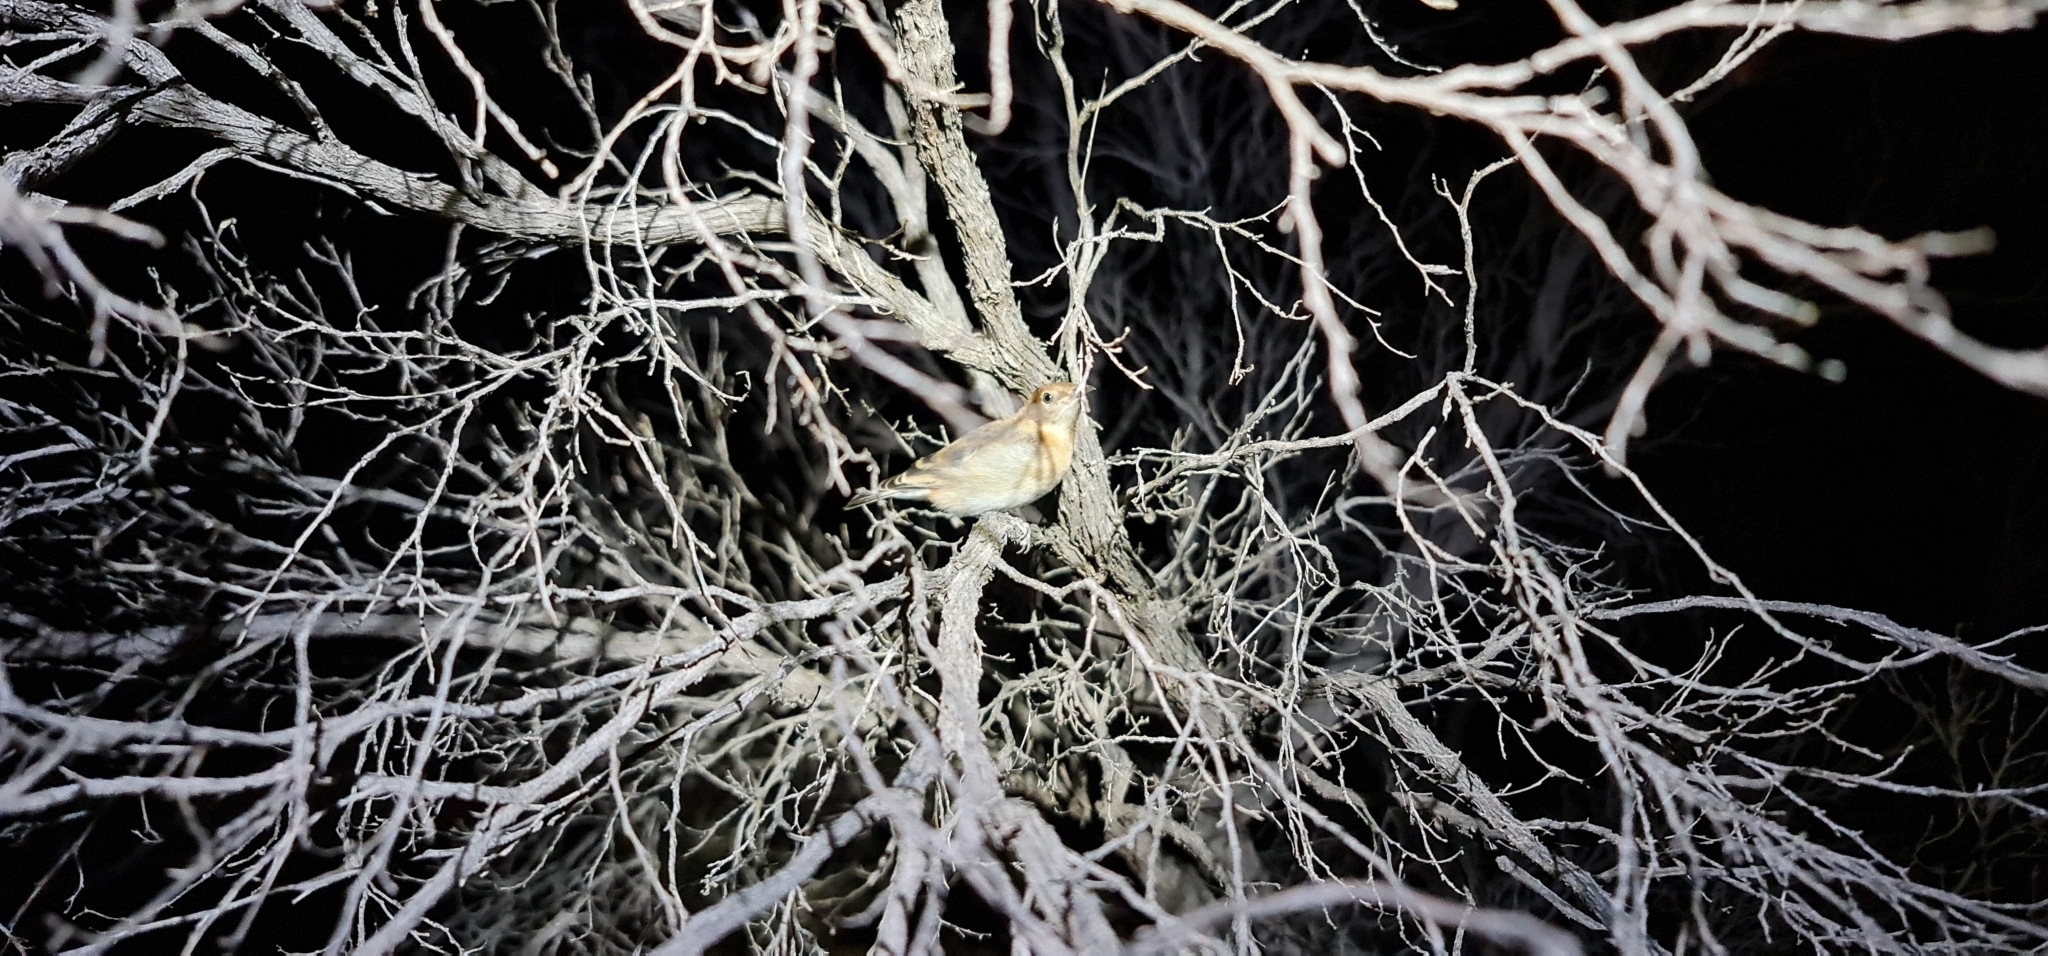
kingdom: Animalia
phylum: Chordata
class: Aves
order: Passeriformes
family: Meliphagidae
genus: Epthianura
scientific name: Epthianura tricolor
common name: Crimson chat
